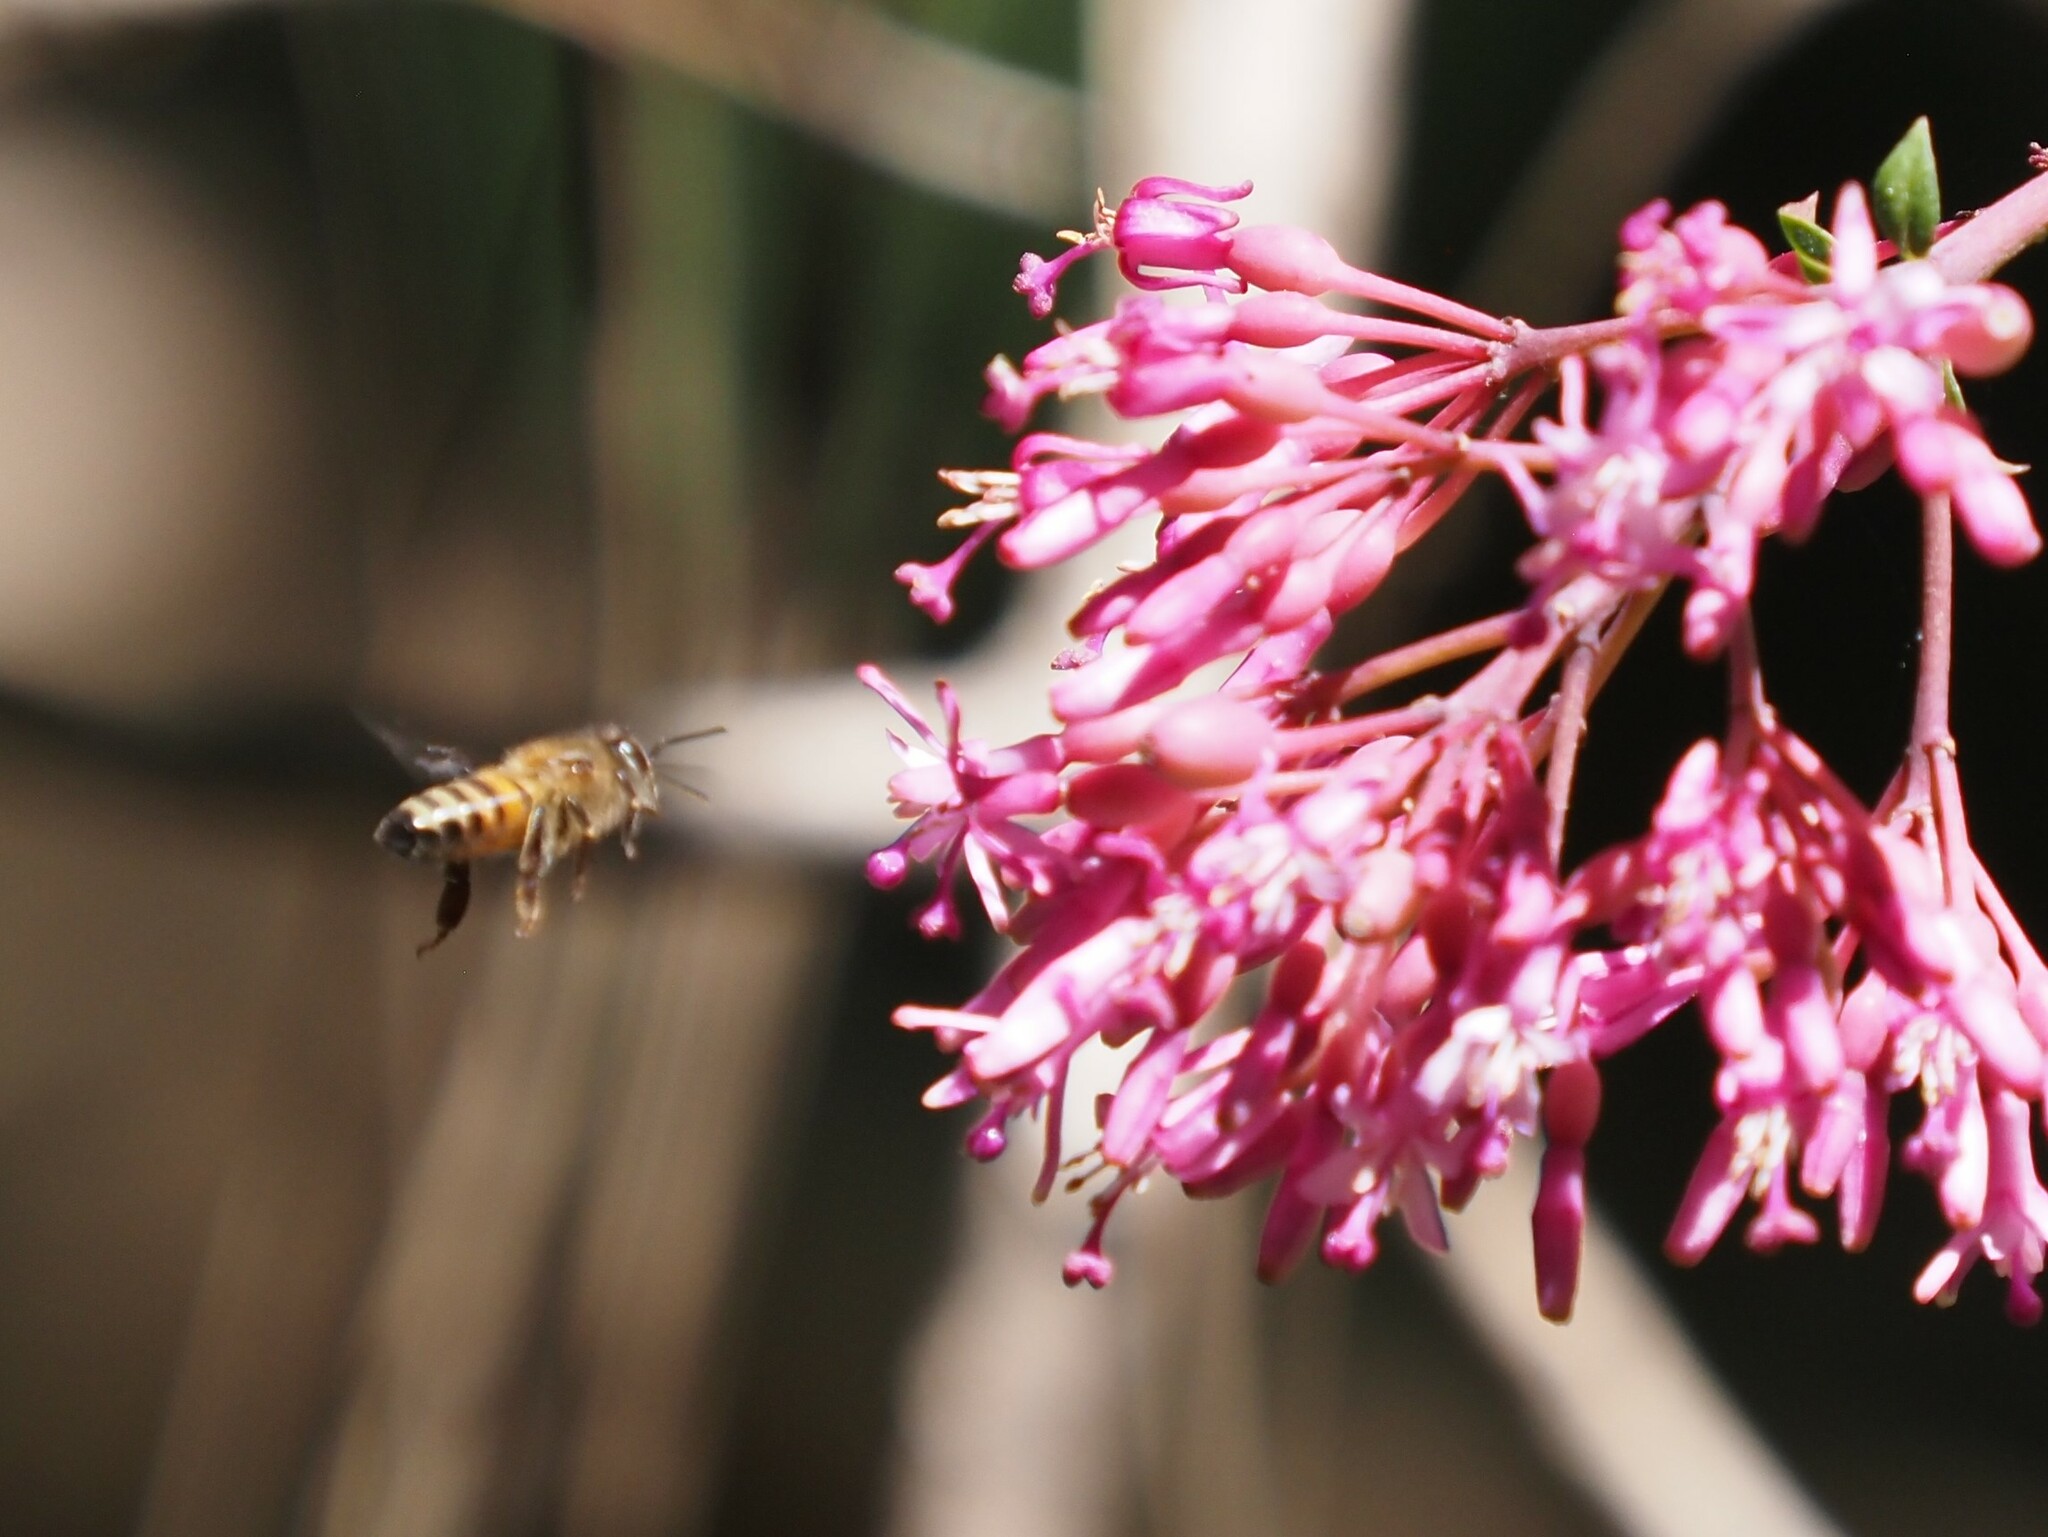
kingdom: Animalia
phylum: Arthropoda
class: Insecta
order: Hymenoptera
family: Apidae
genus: Apis
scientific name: Apis mellifera
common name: Honey bee
